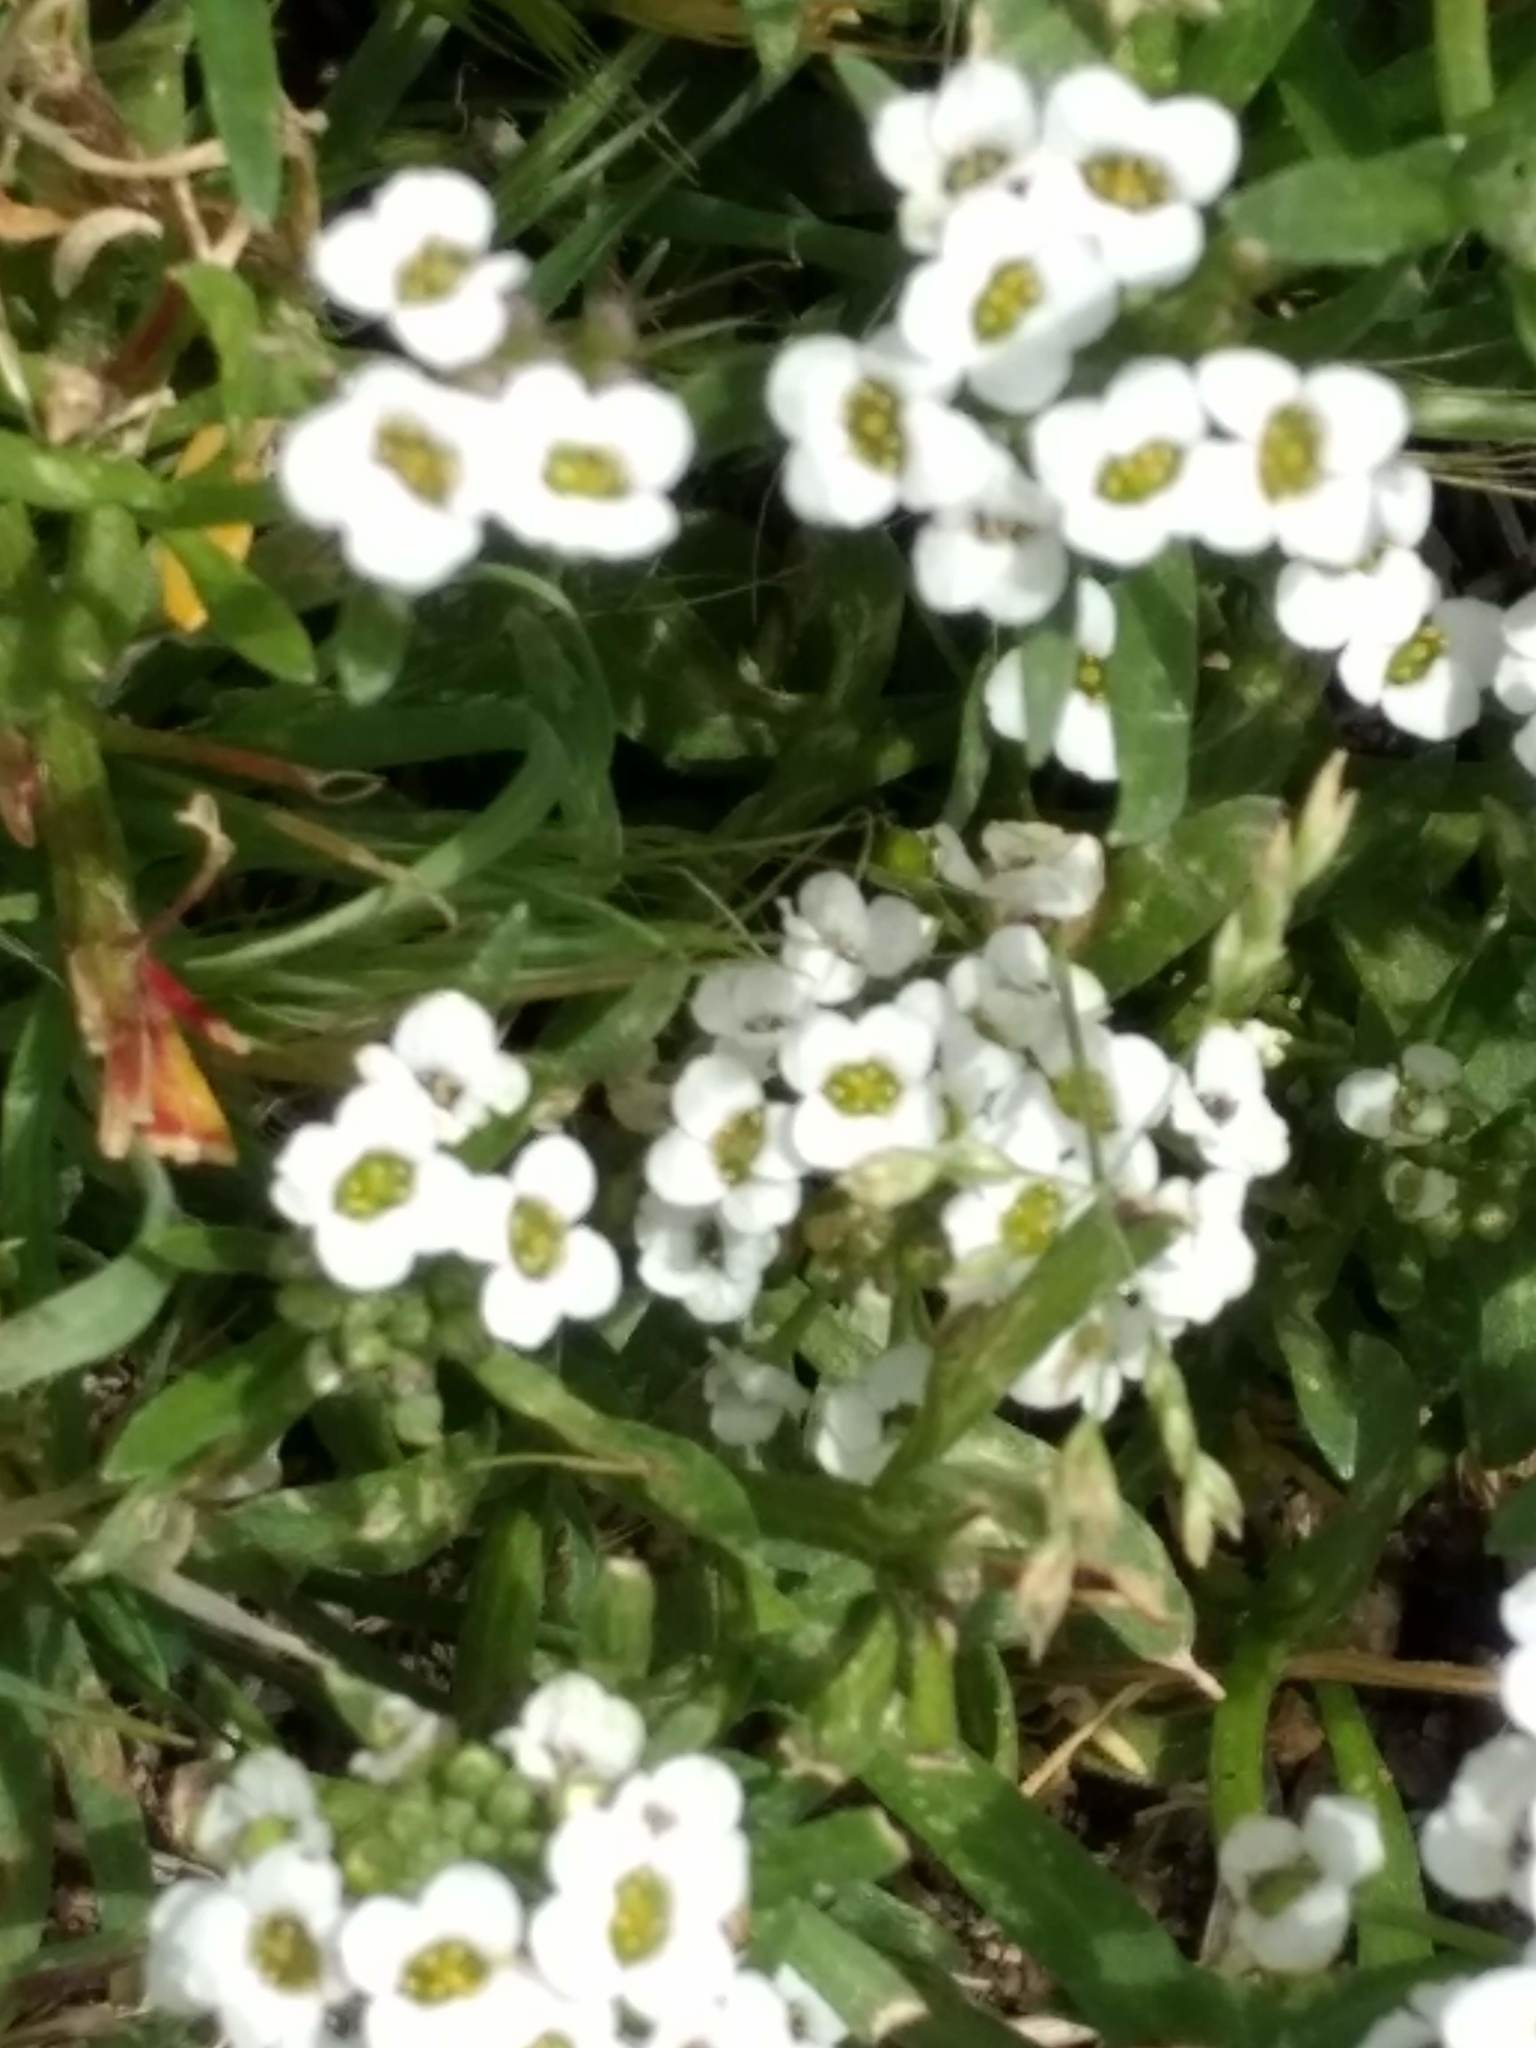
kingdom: Plantae
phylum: Tracheophyta
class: Magnoliopsida
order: Brassicales
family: Brassicaceae
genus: Lobularia
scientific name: Lobularia maritima
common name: Sweet alison
